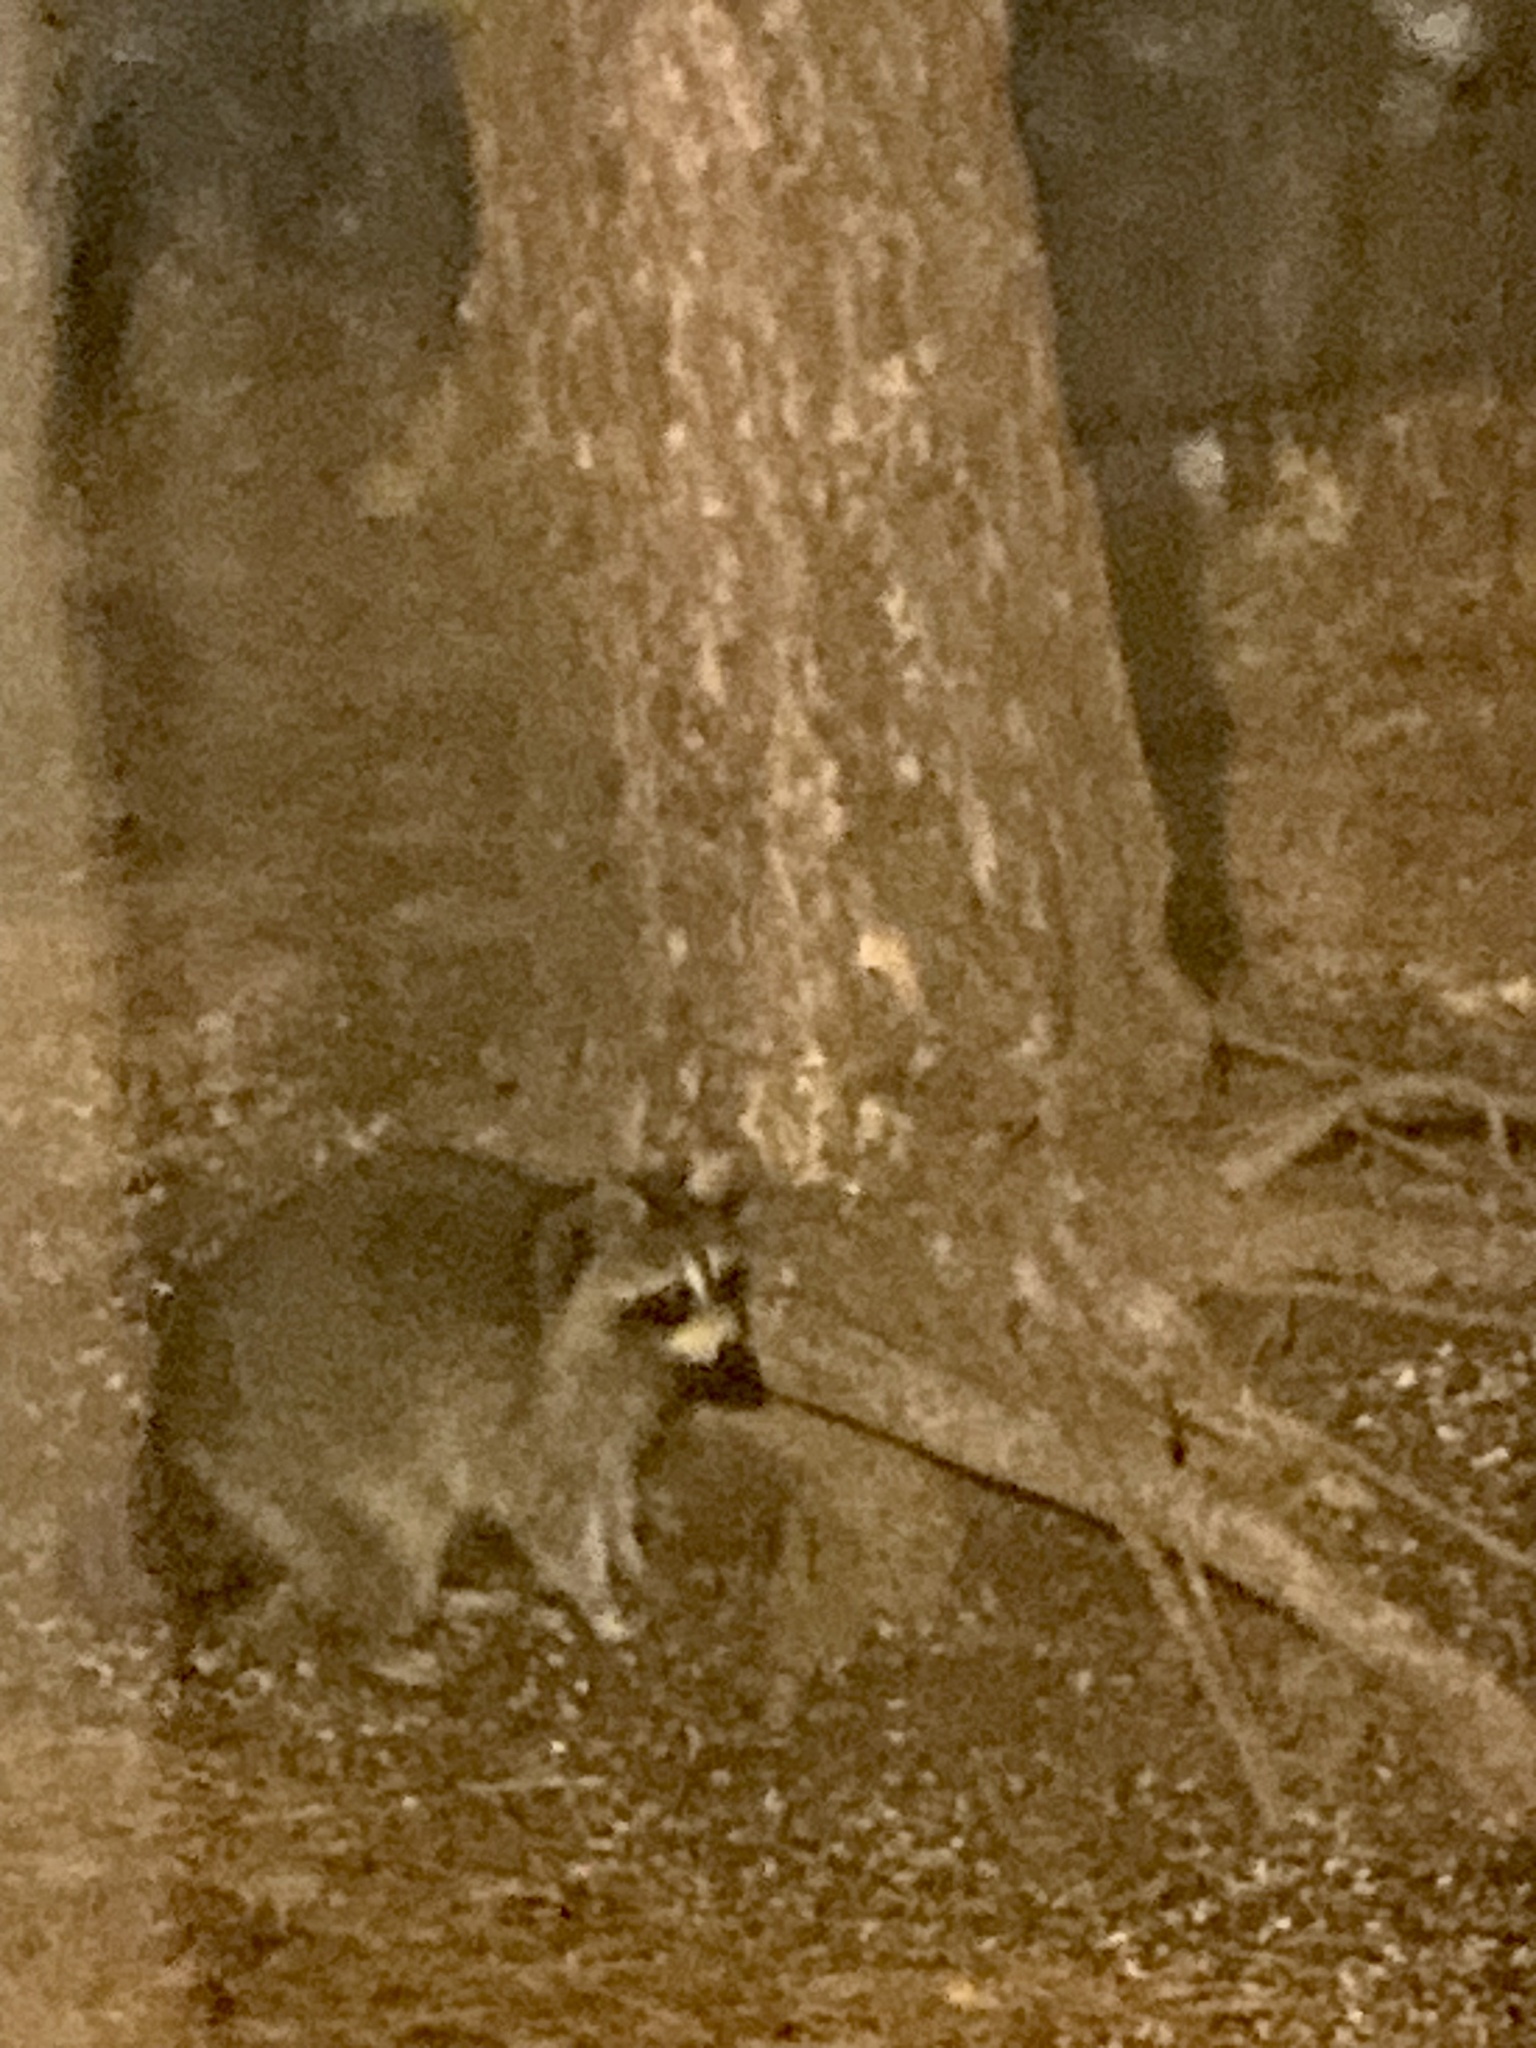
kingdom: Animalia
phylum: Chordata
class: Mammalia
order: Carnivora
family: Procyonidae
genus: Procyon
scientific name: Procyon lotor
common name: Raccoon
